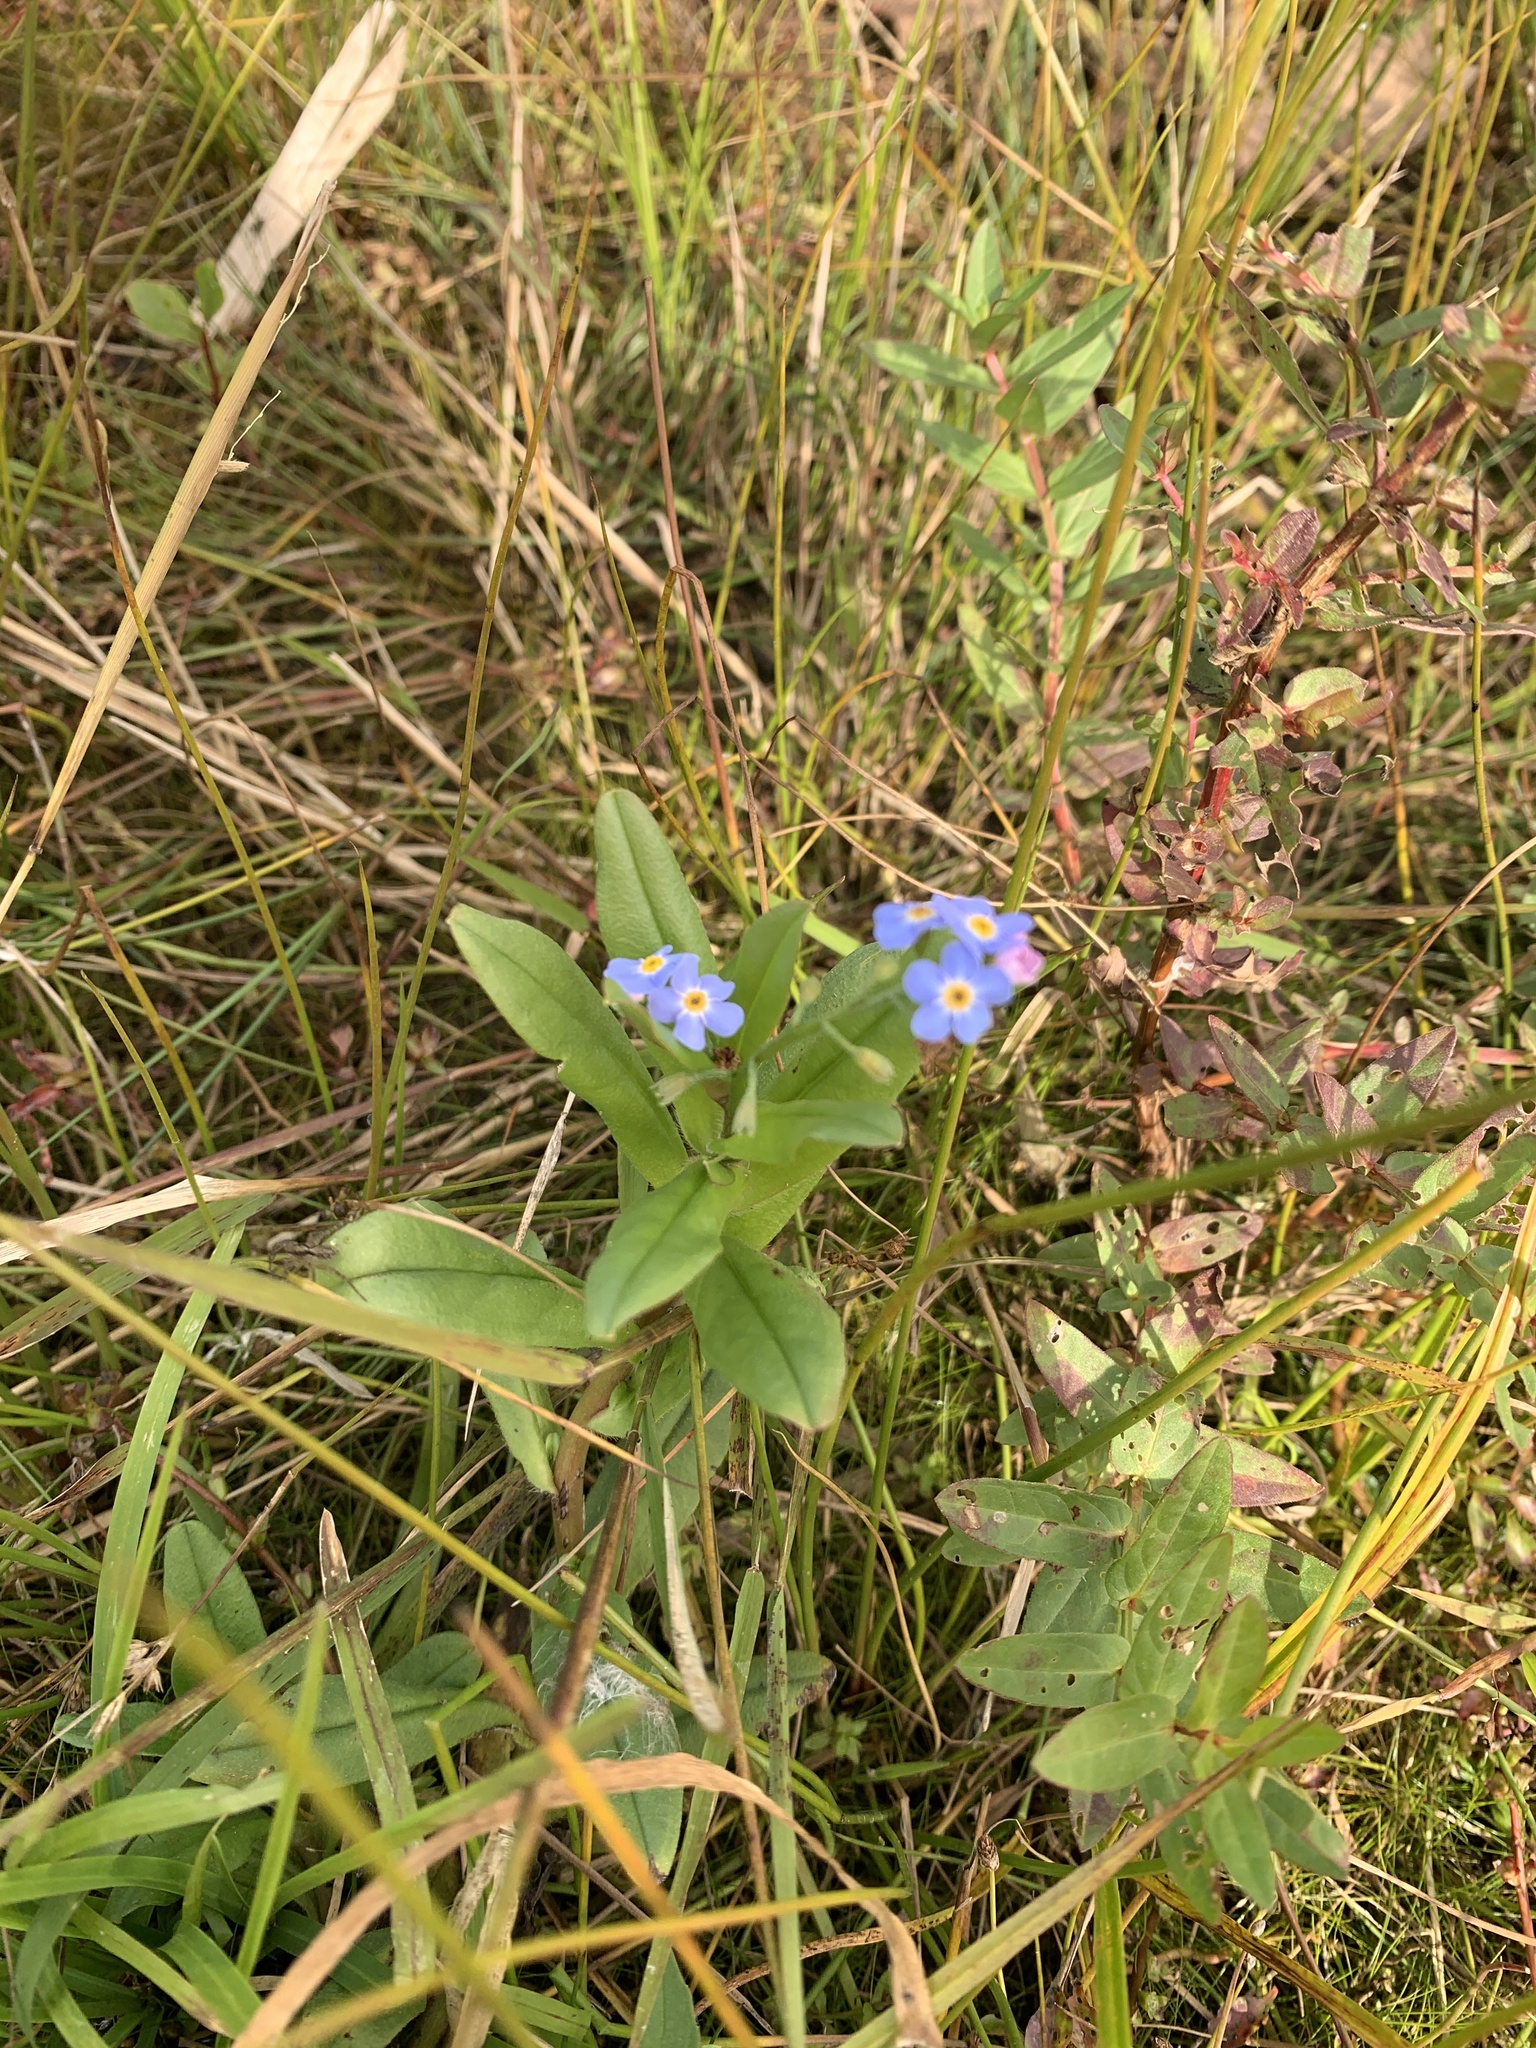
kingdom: Plantae
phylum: Tracheophyta
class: Magnoliopsida
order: Boraginales
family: Boraginaceae
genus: Myosotis
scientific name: Myosotis scorpioides
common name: Water forget-me-not
